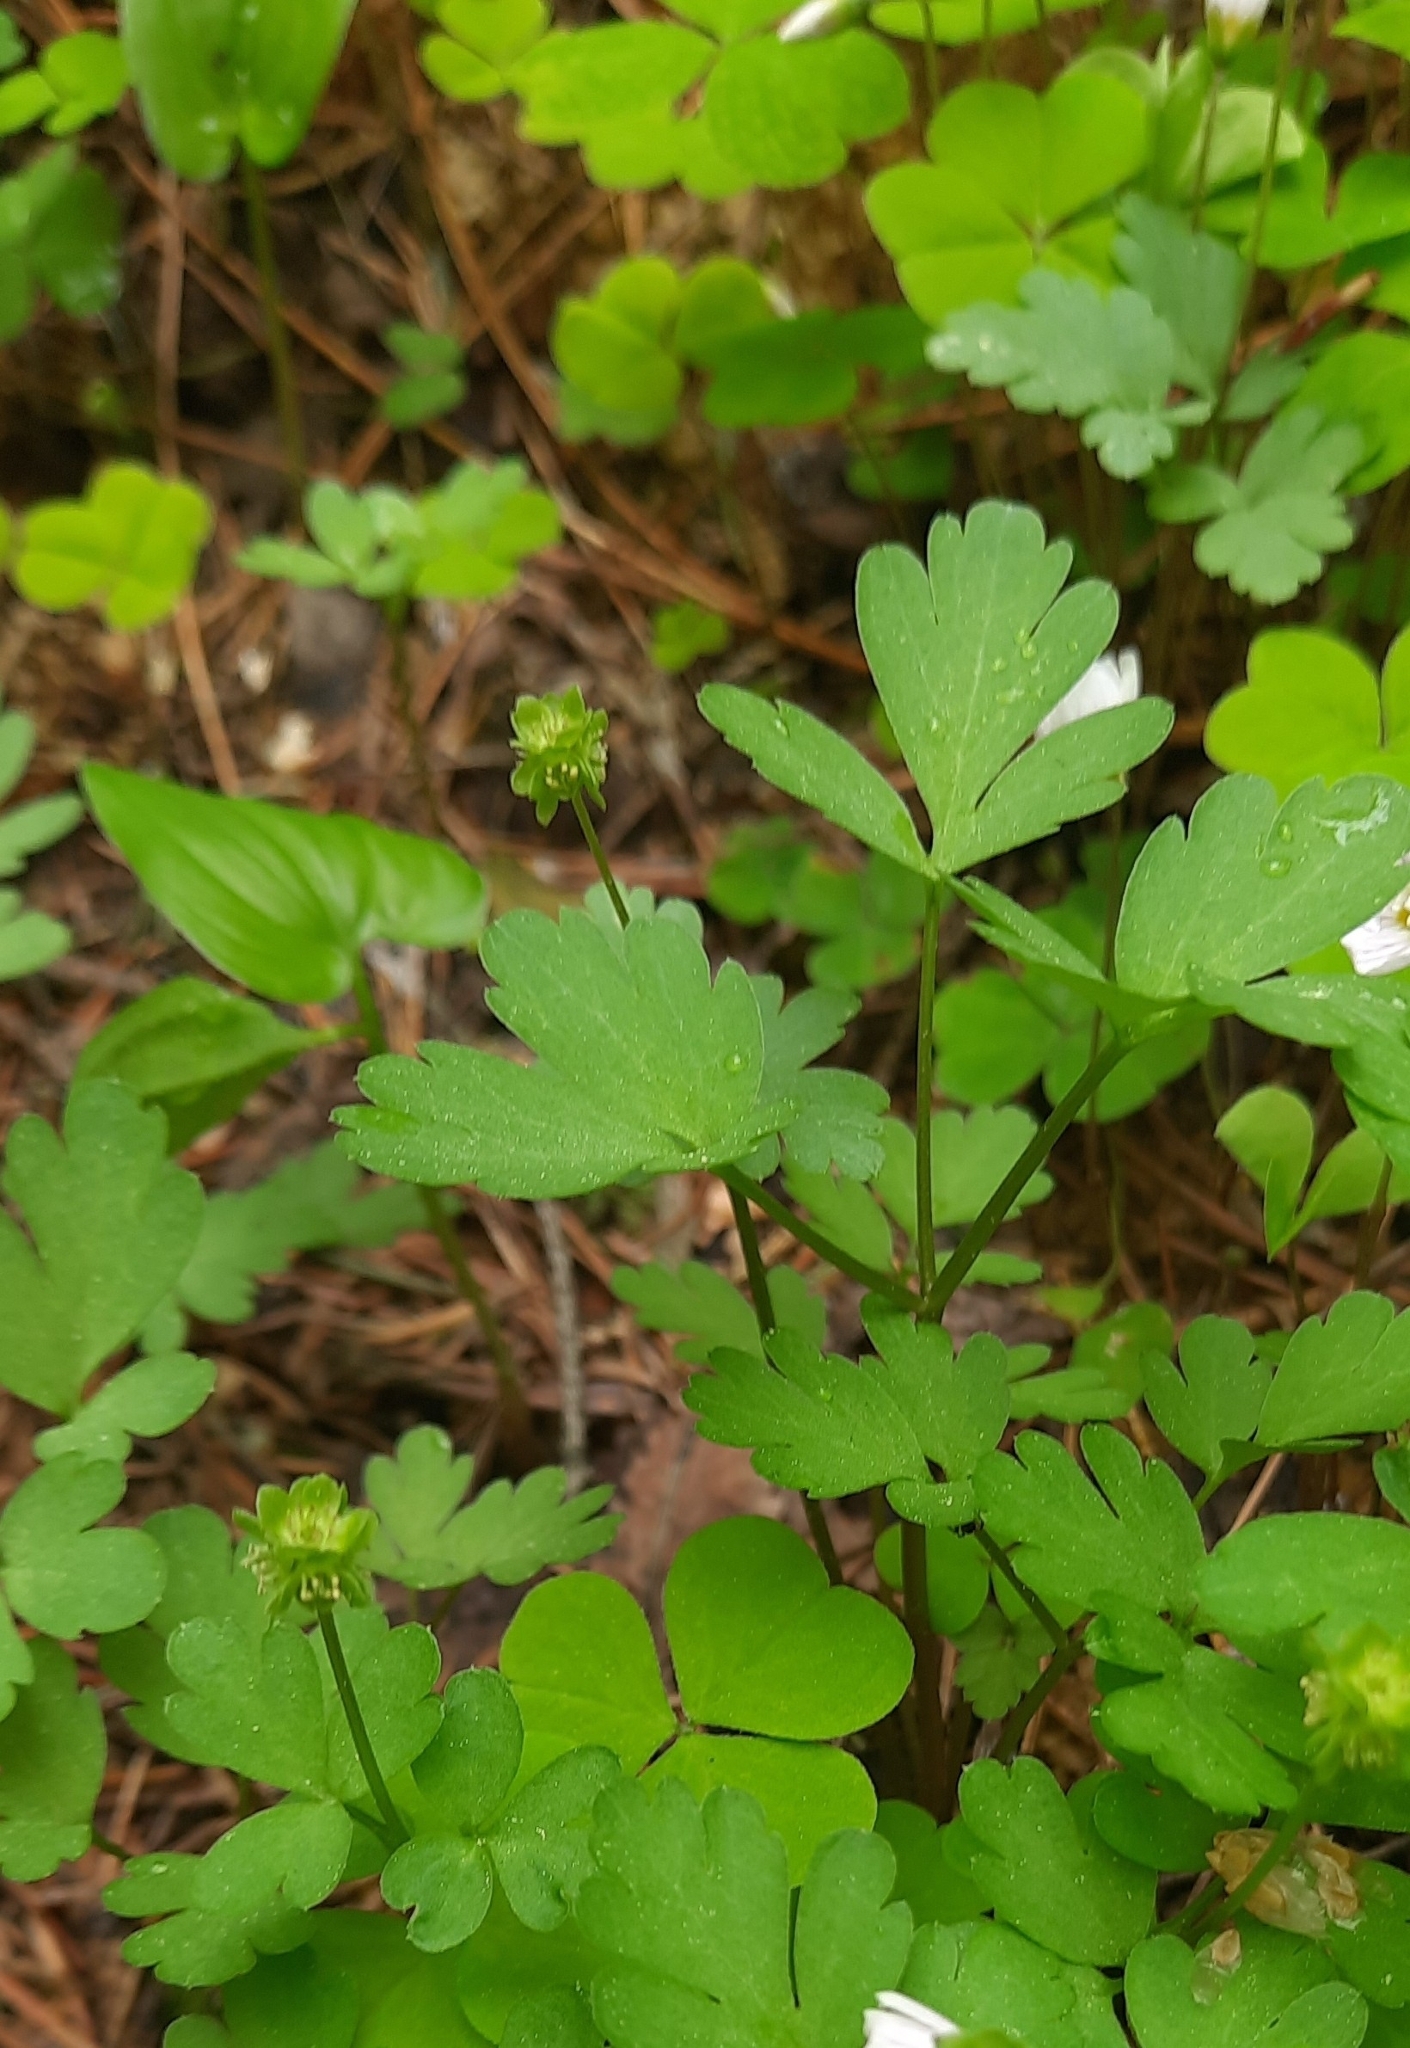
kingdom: Plantae
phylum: Tracheophyta
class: Magnoliopsida
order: Dipsacales
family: Viburnaceae
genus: Adoxa
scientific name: Adoxa moschatellina
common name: Moschatel
